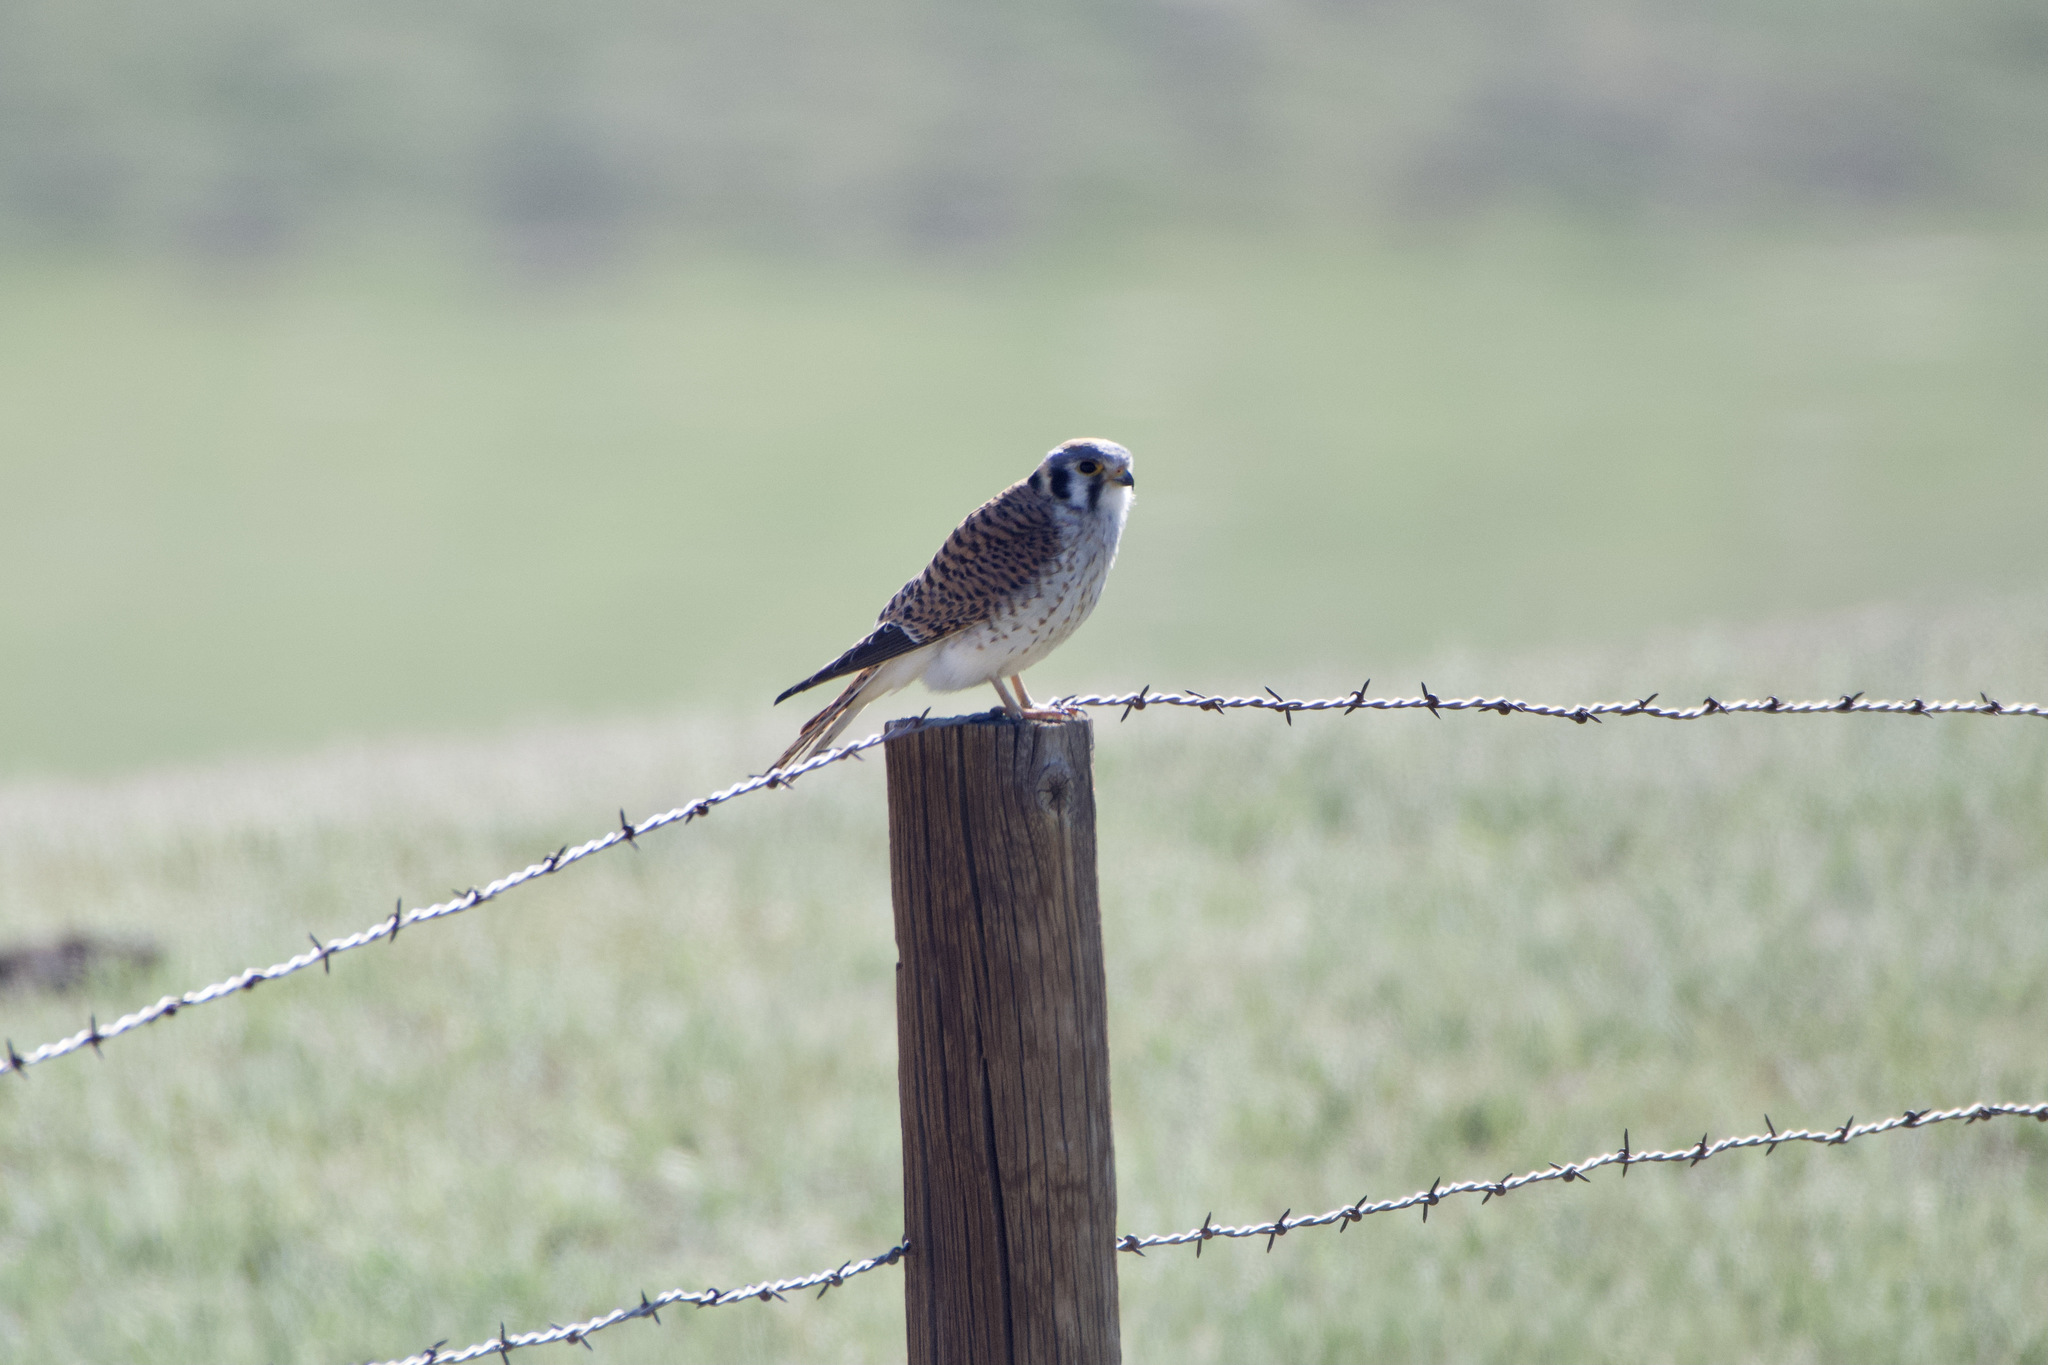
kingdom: Animalia
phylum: Chordata
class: Aves
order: Falconiformes
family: Falconidae
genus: Falco
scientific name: Falco sparverius
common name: American kestrel
